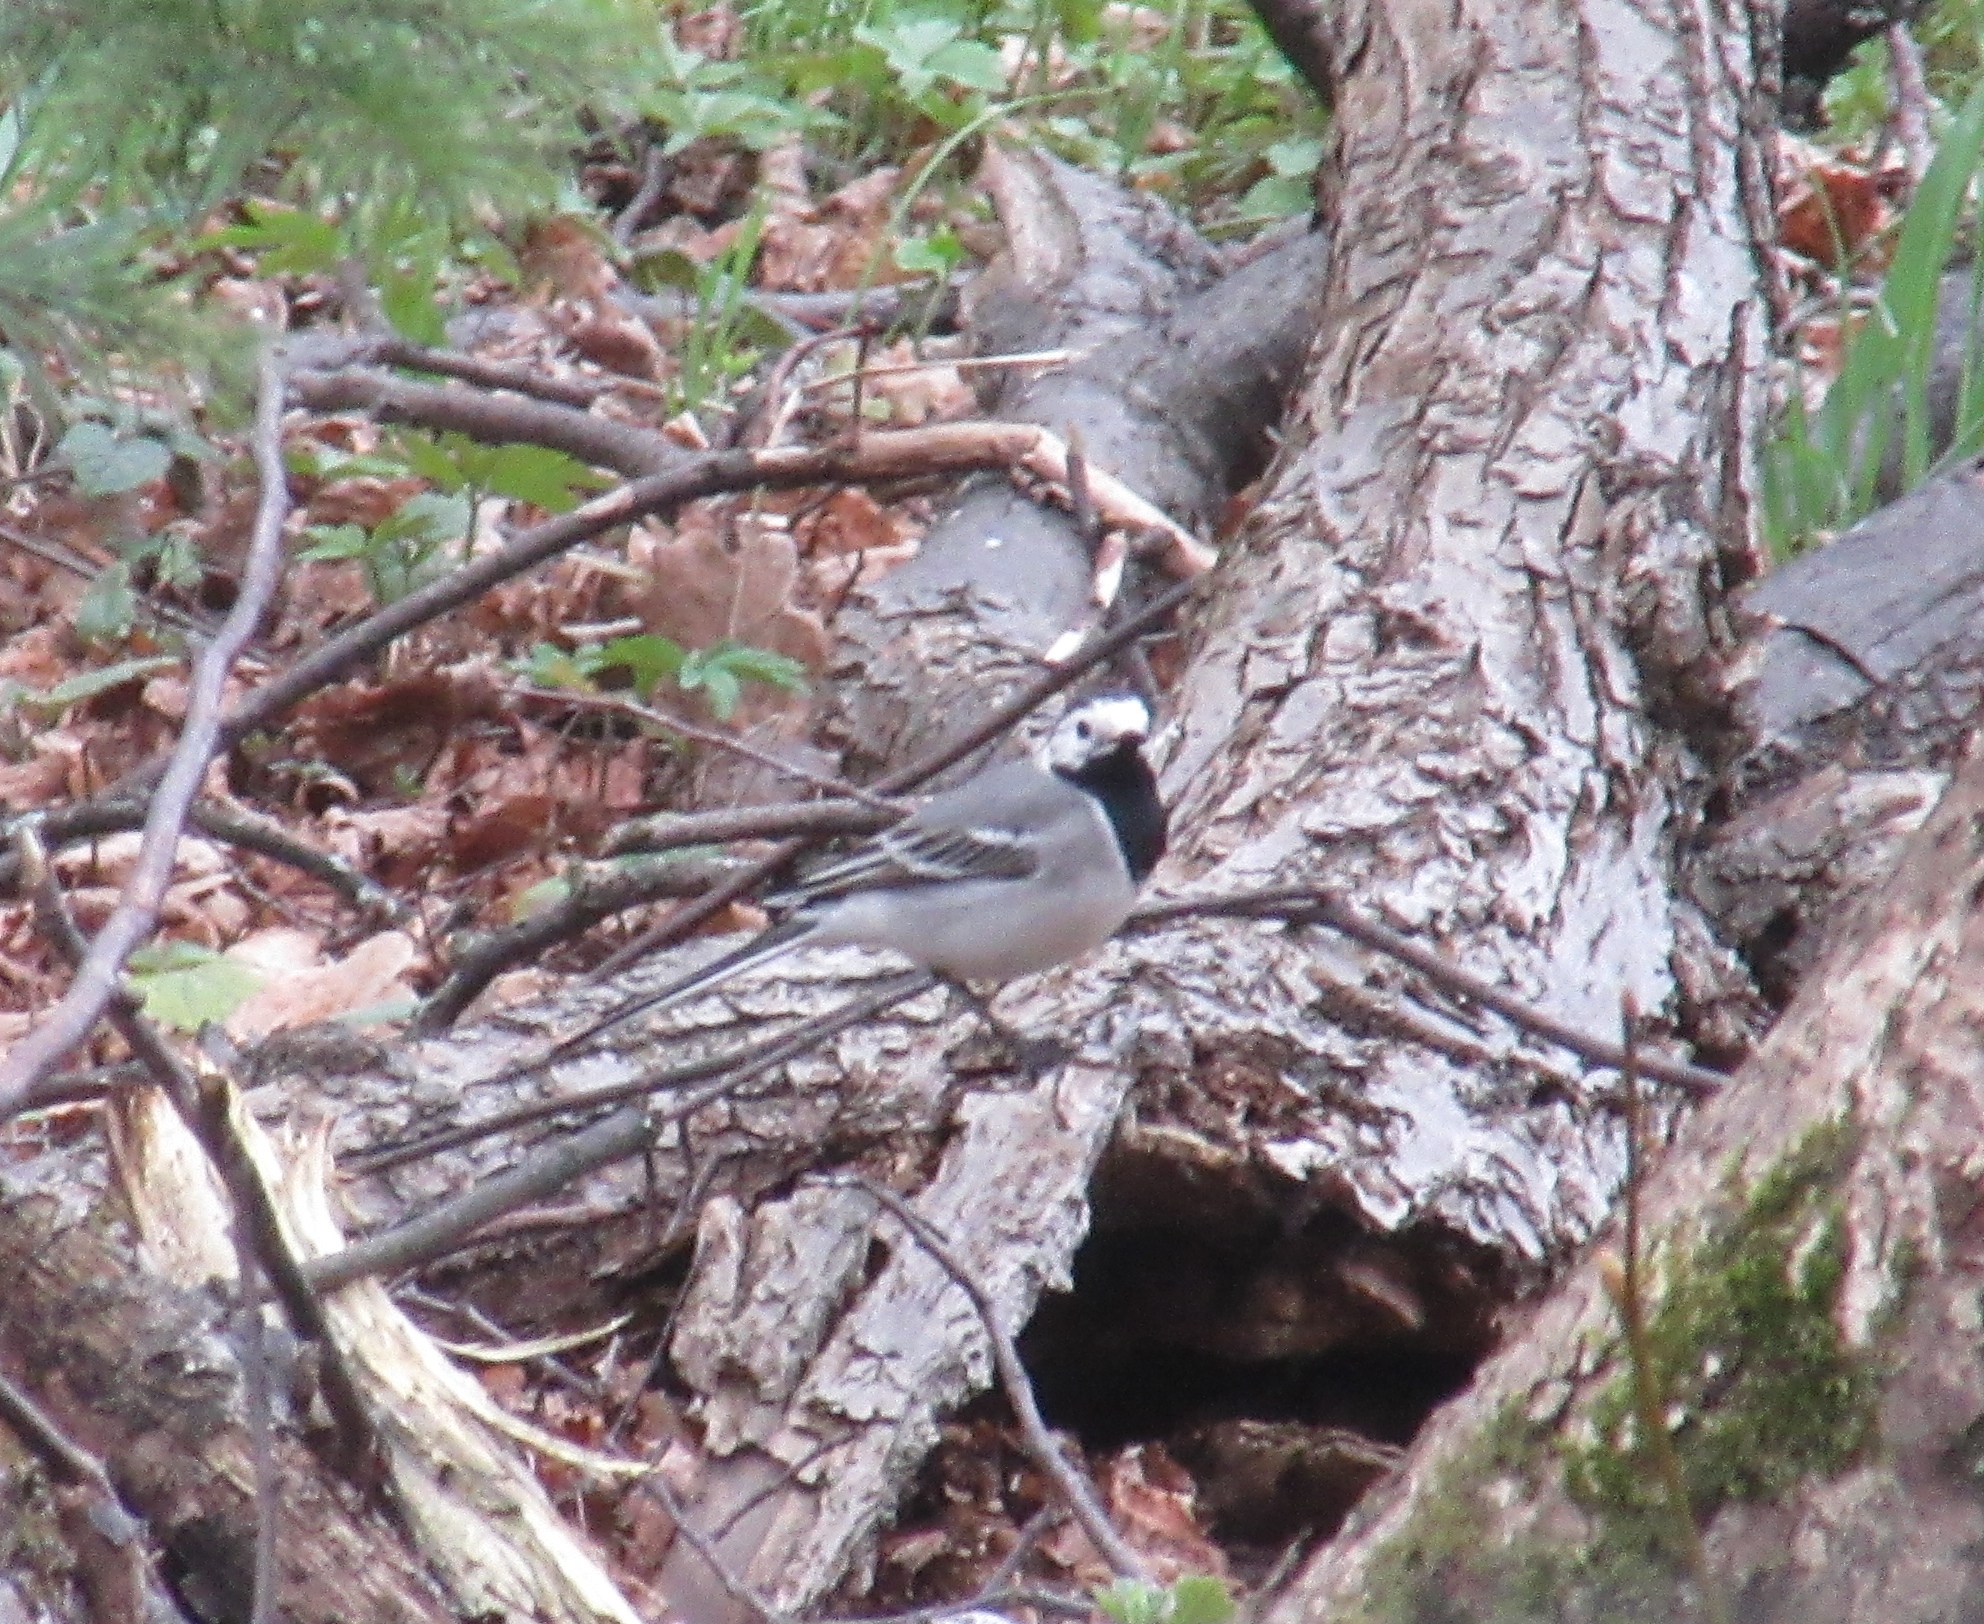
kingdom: Animalia
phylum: Chordata
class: Aves
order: Passeriformes
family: Motacillidae
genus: Motacilla
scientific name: Motacilla alba
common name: White wagtail
